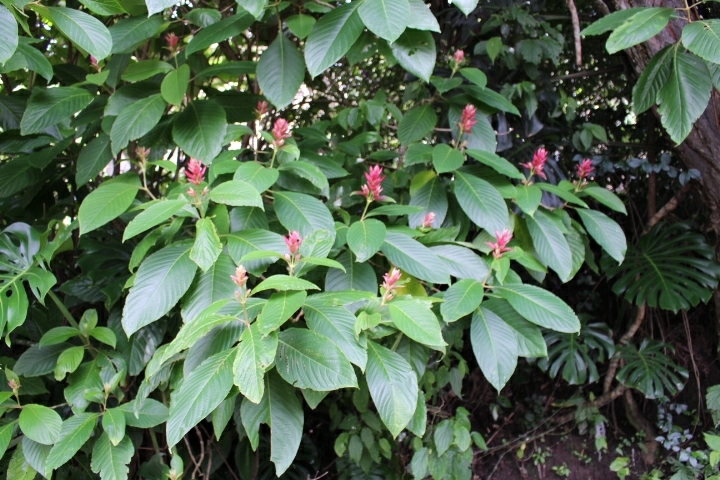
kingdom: Plantae
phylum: Tracheophyta
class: Magnoliopsida
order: Lamiales
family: Acanthaceae
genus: Megaskepasma
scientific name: Megaskepasma erythrochlamys
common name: Brazilian red-cloak
